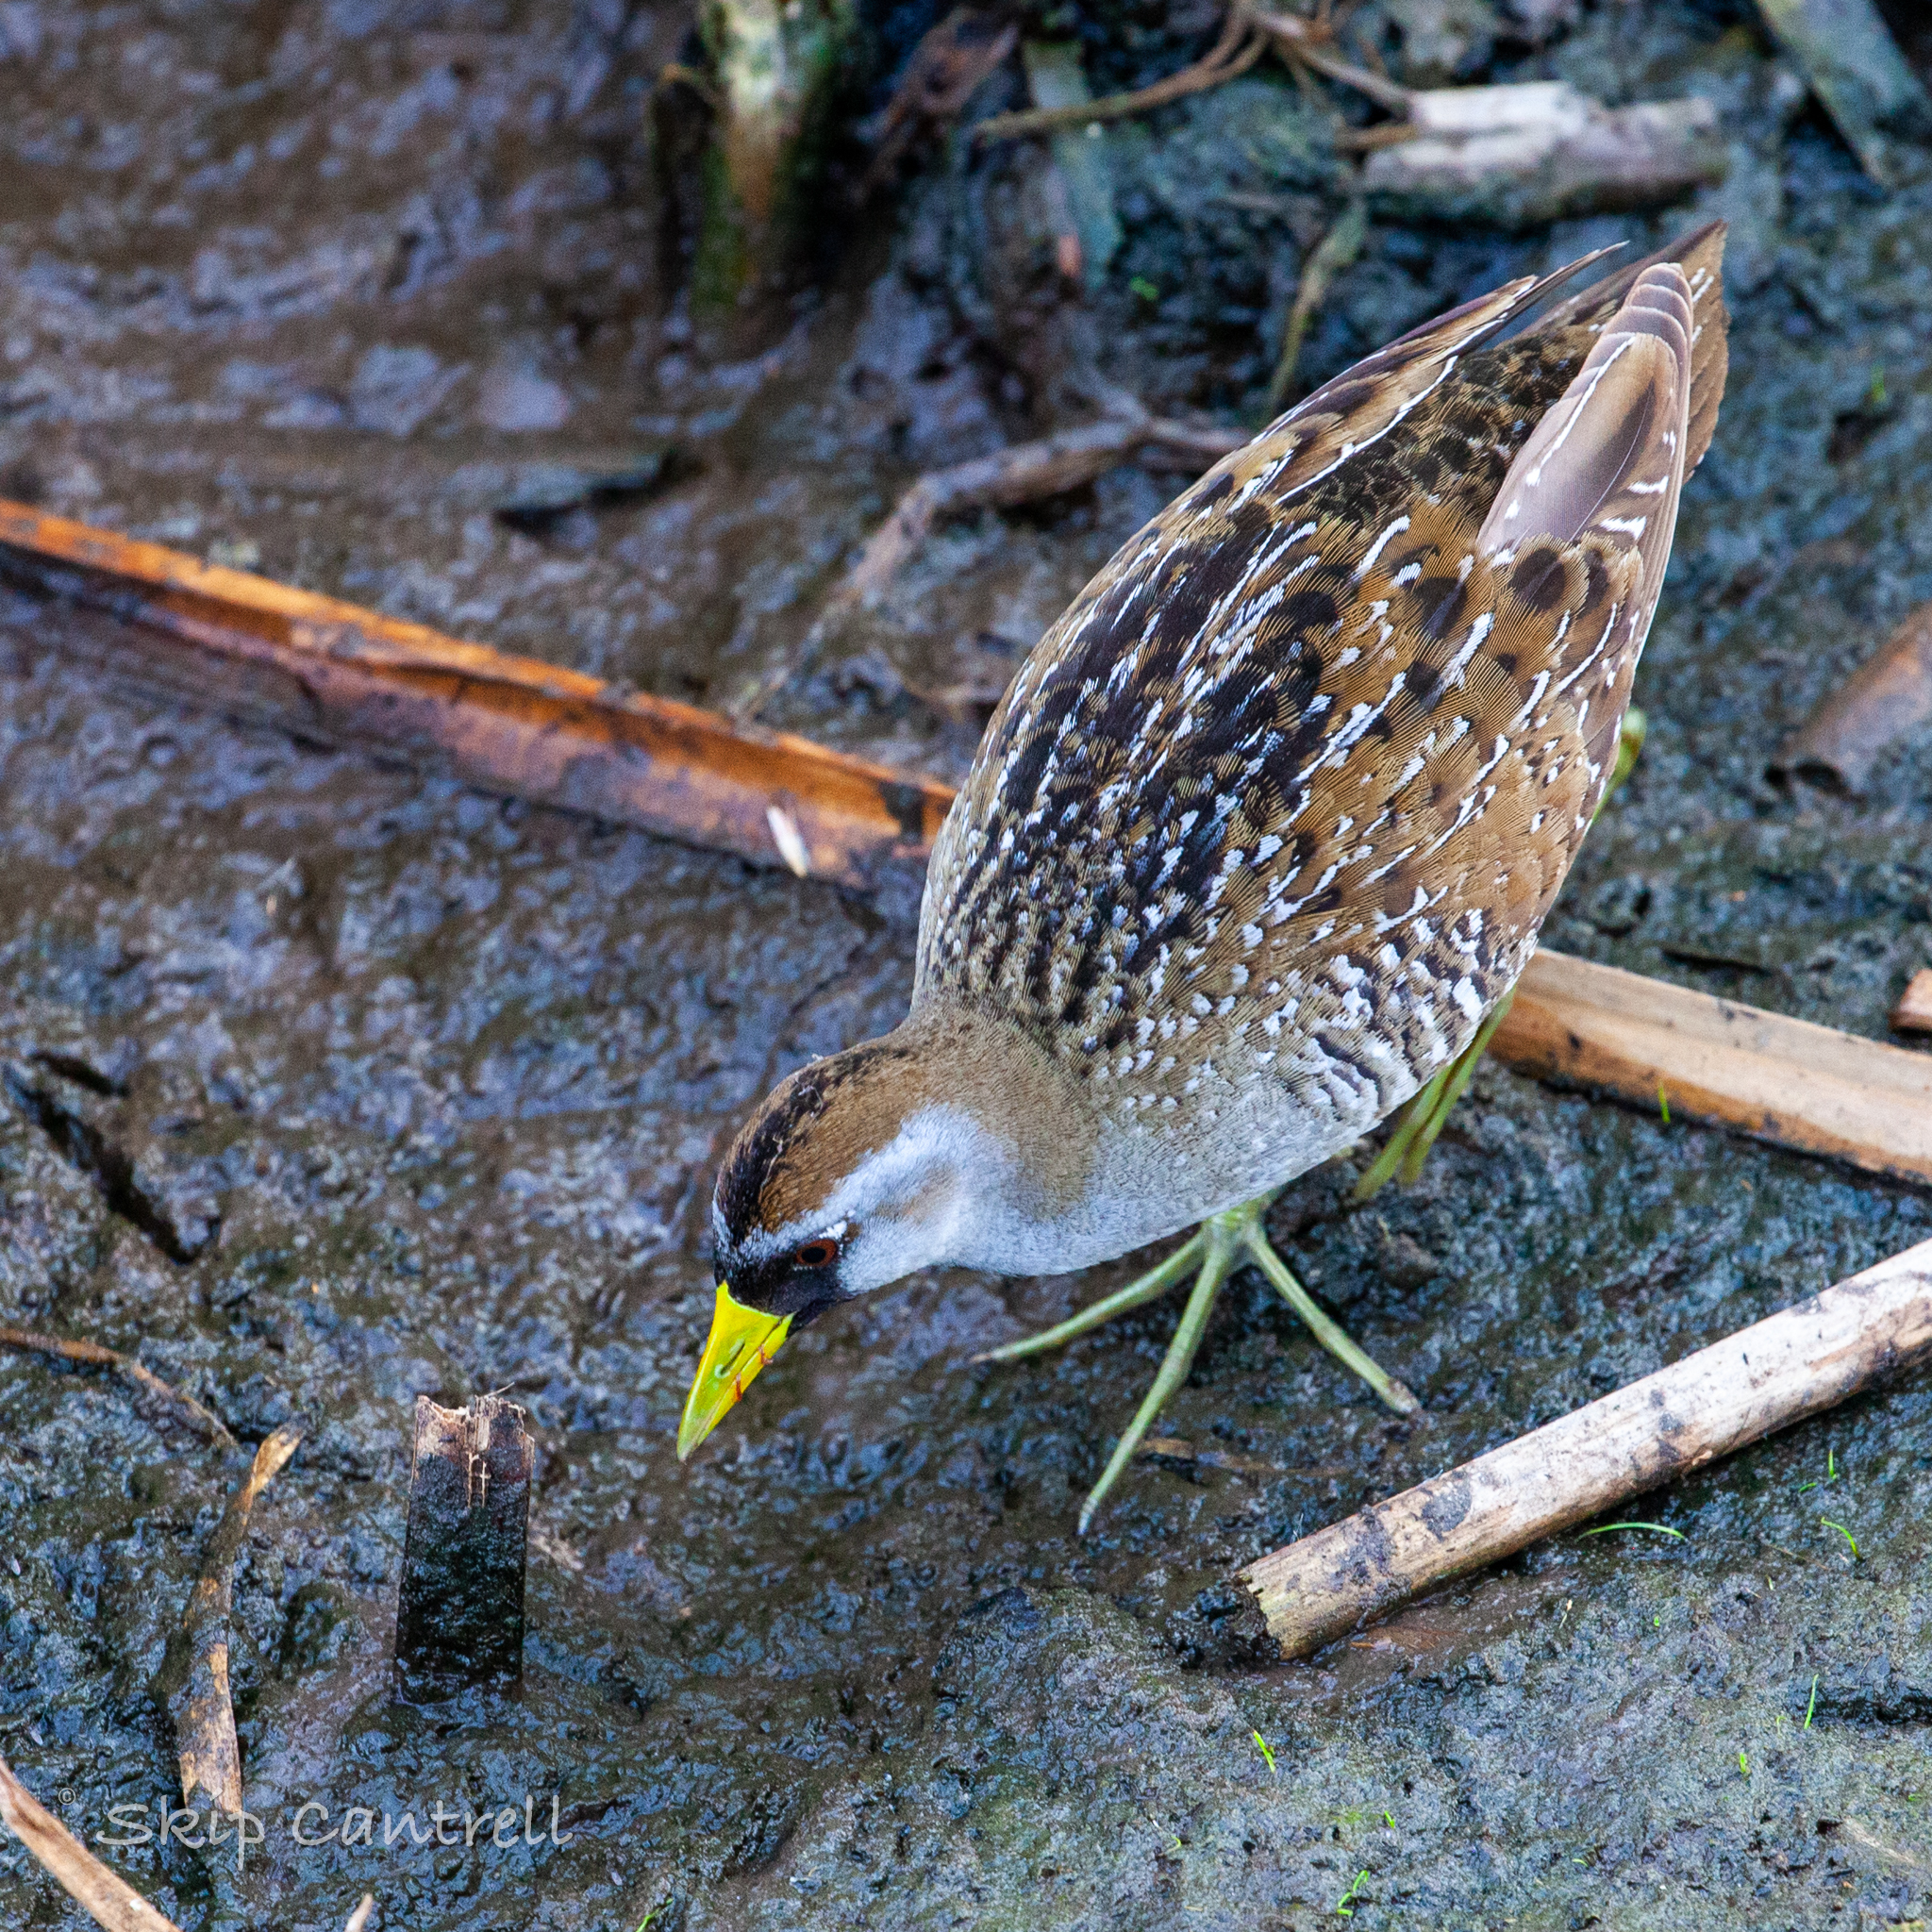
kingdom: Animalia
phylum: Chordata
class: Aves
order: Gruiformes
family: Rallidae
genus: Porzana
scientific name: Porzana carolina
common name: Sora
